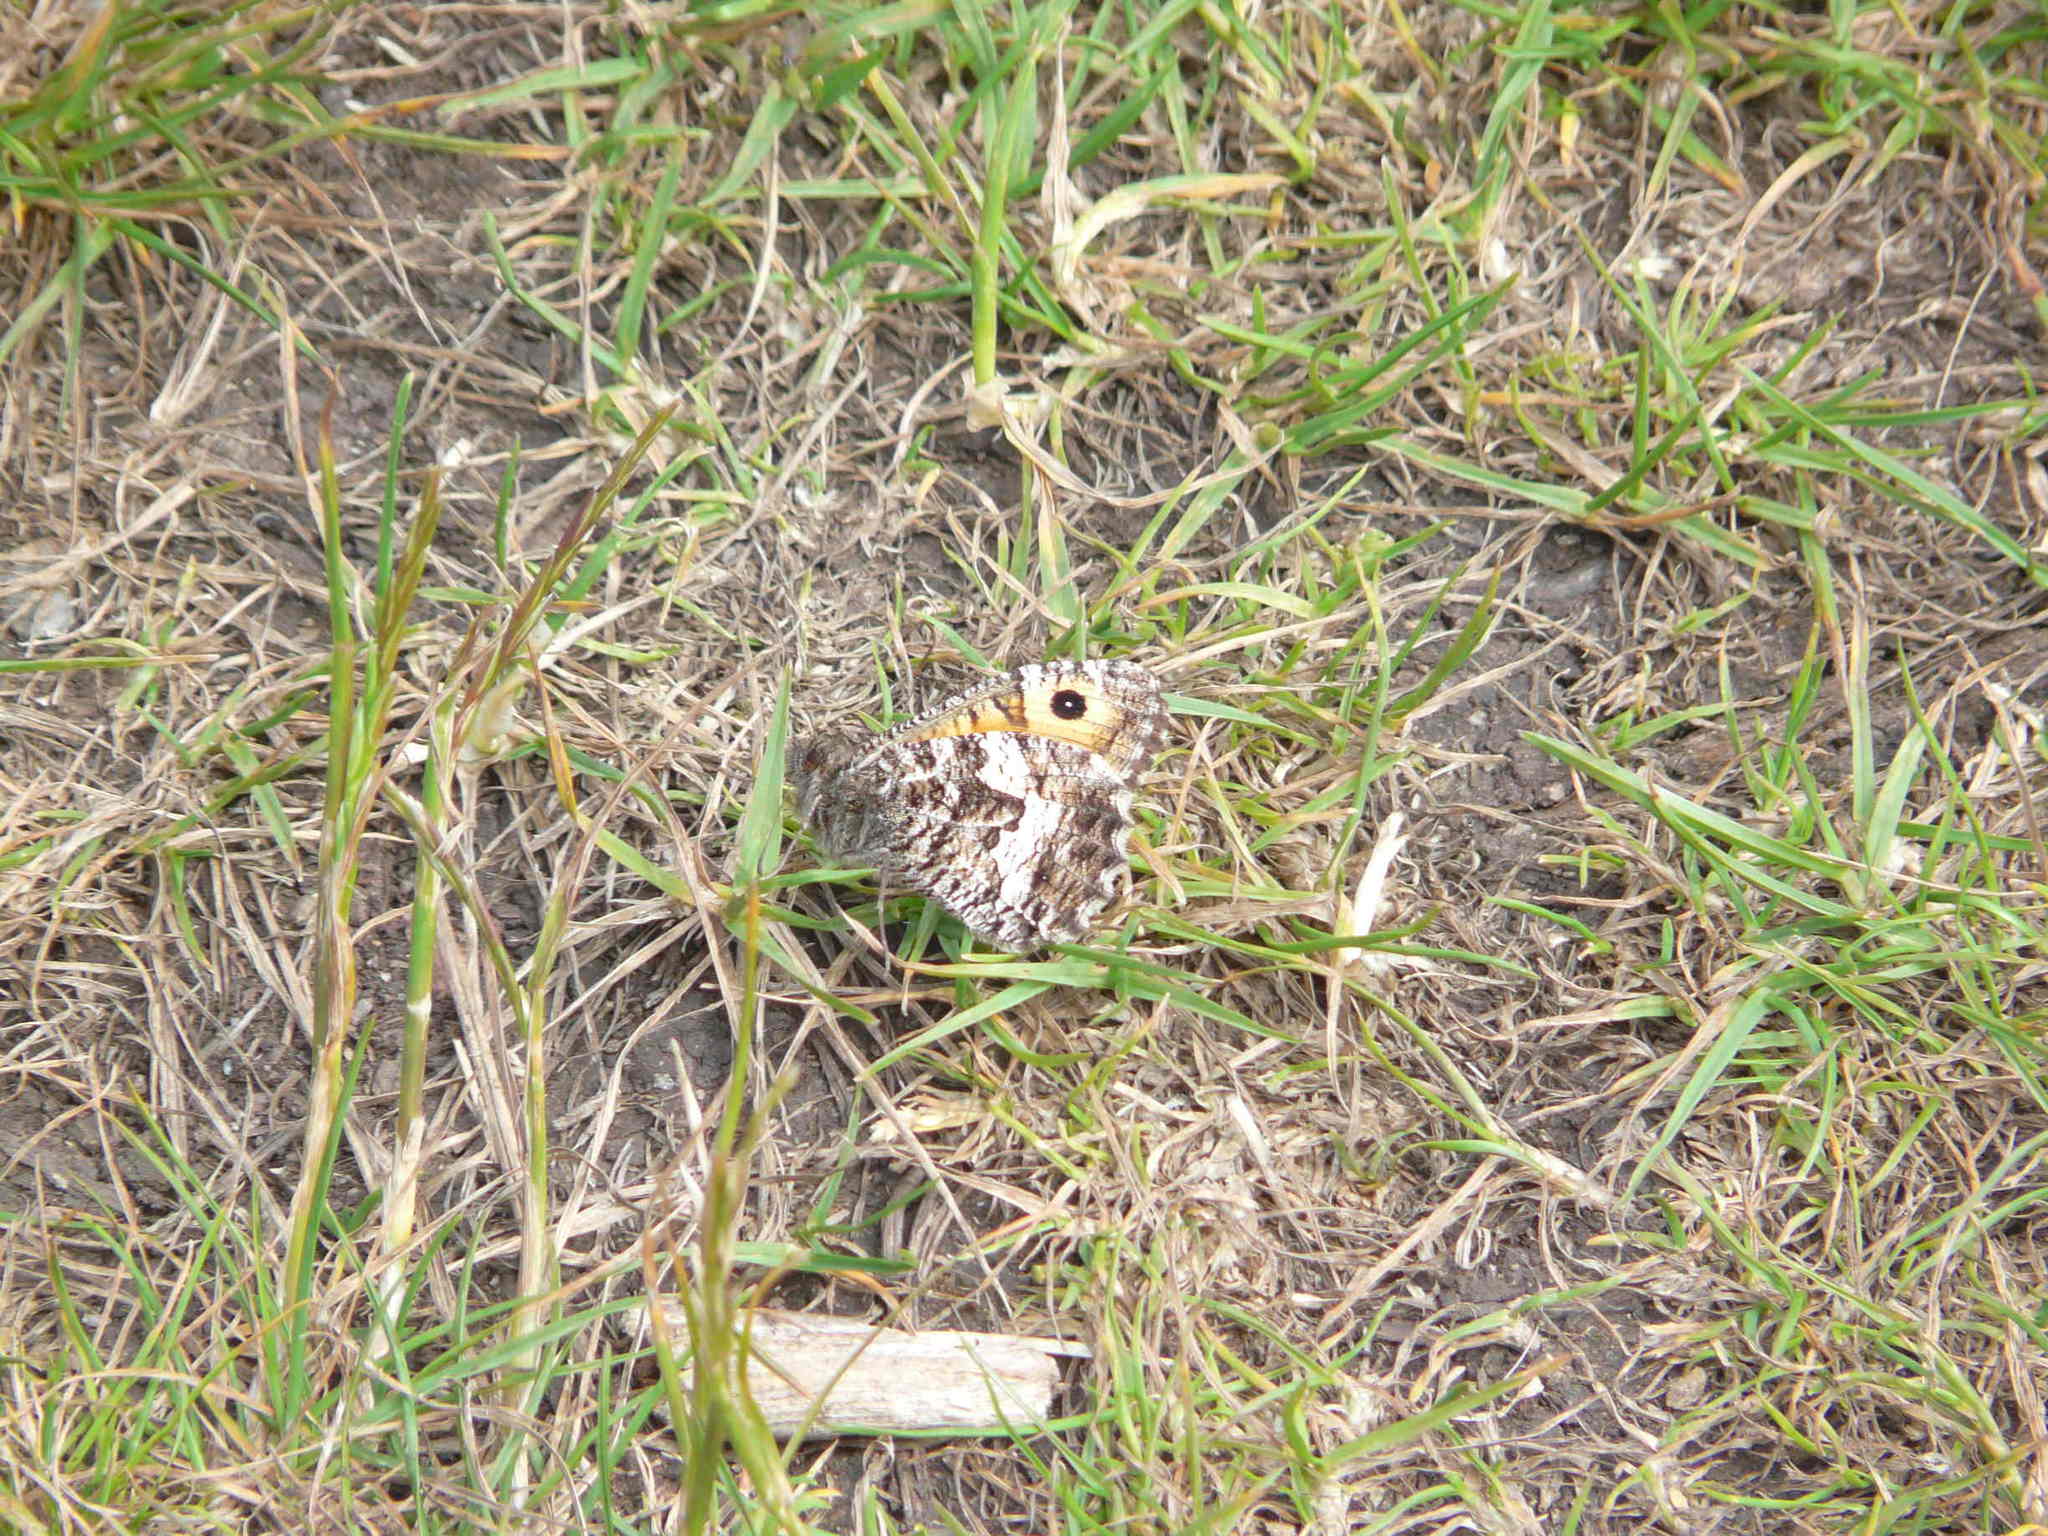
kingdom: Animalia
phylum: Arthropoda
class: Insecta
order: Lepidoptera
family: Nymphalidae
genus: Hipparchia
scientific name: Hipparchia semele
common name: Grayling
